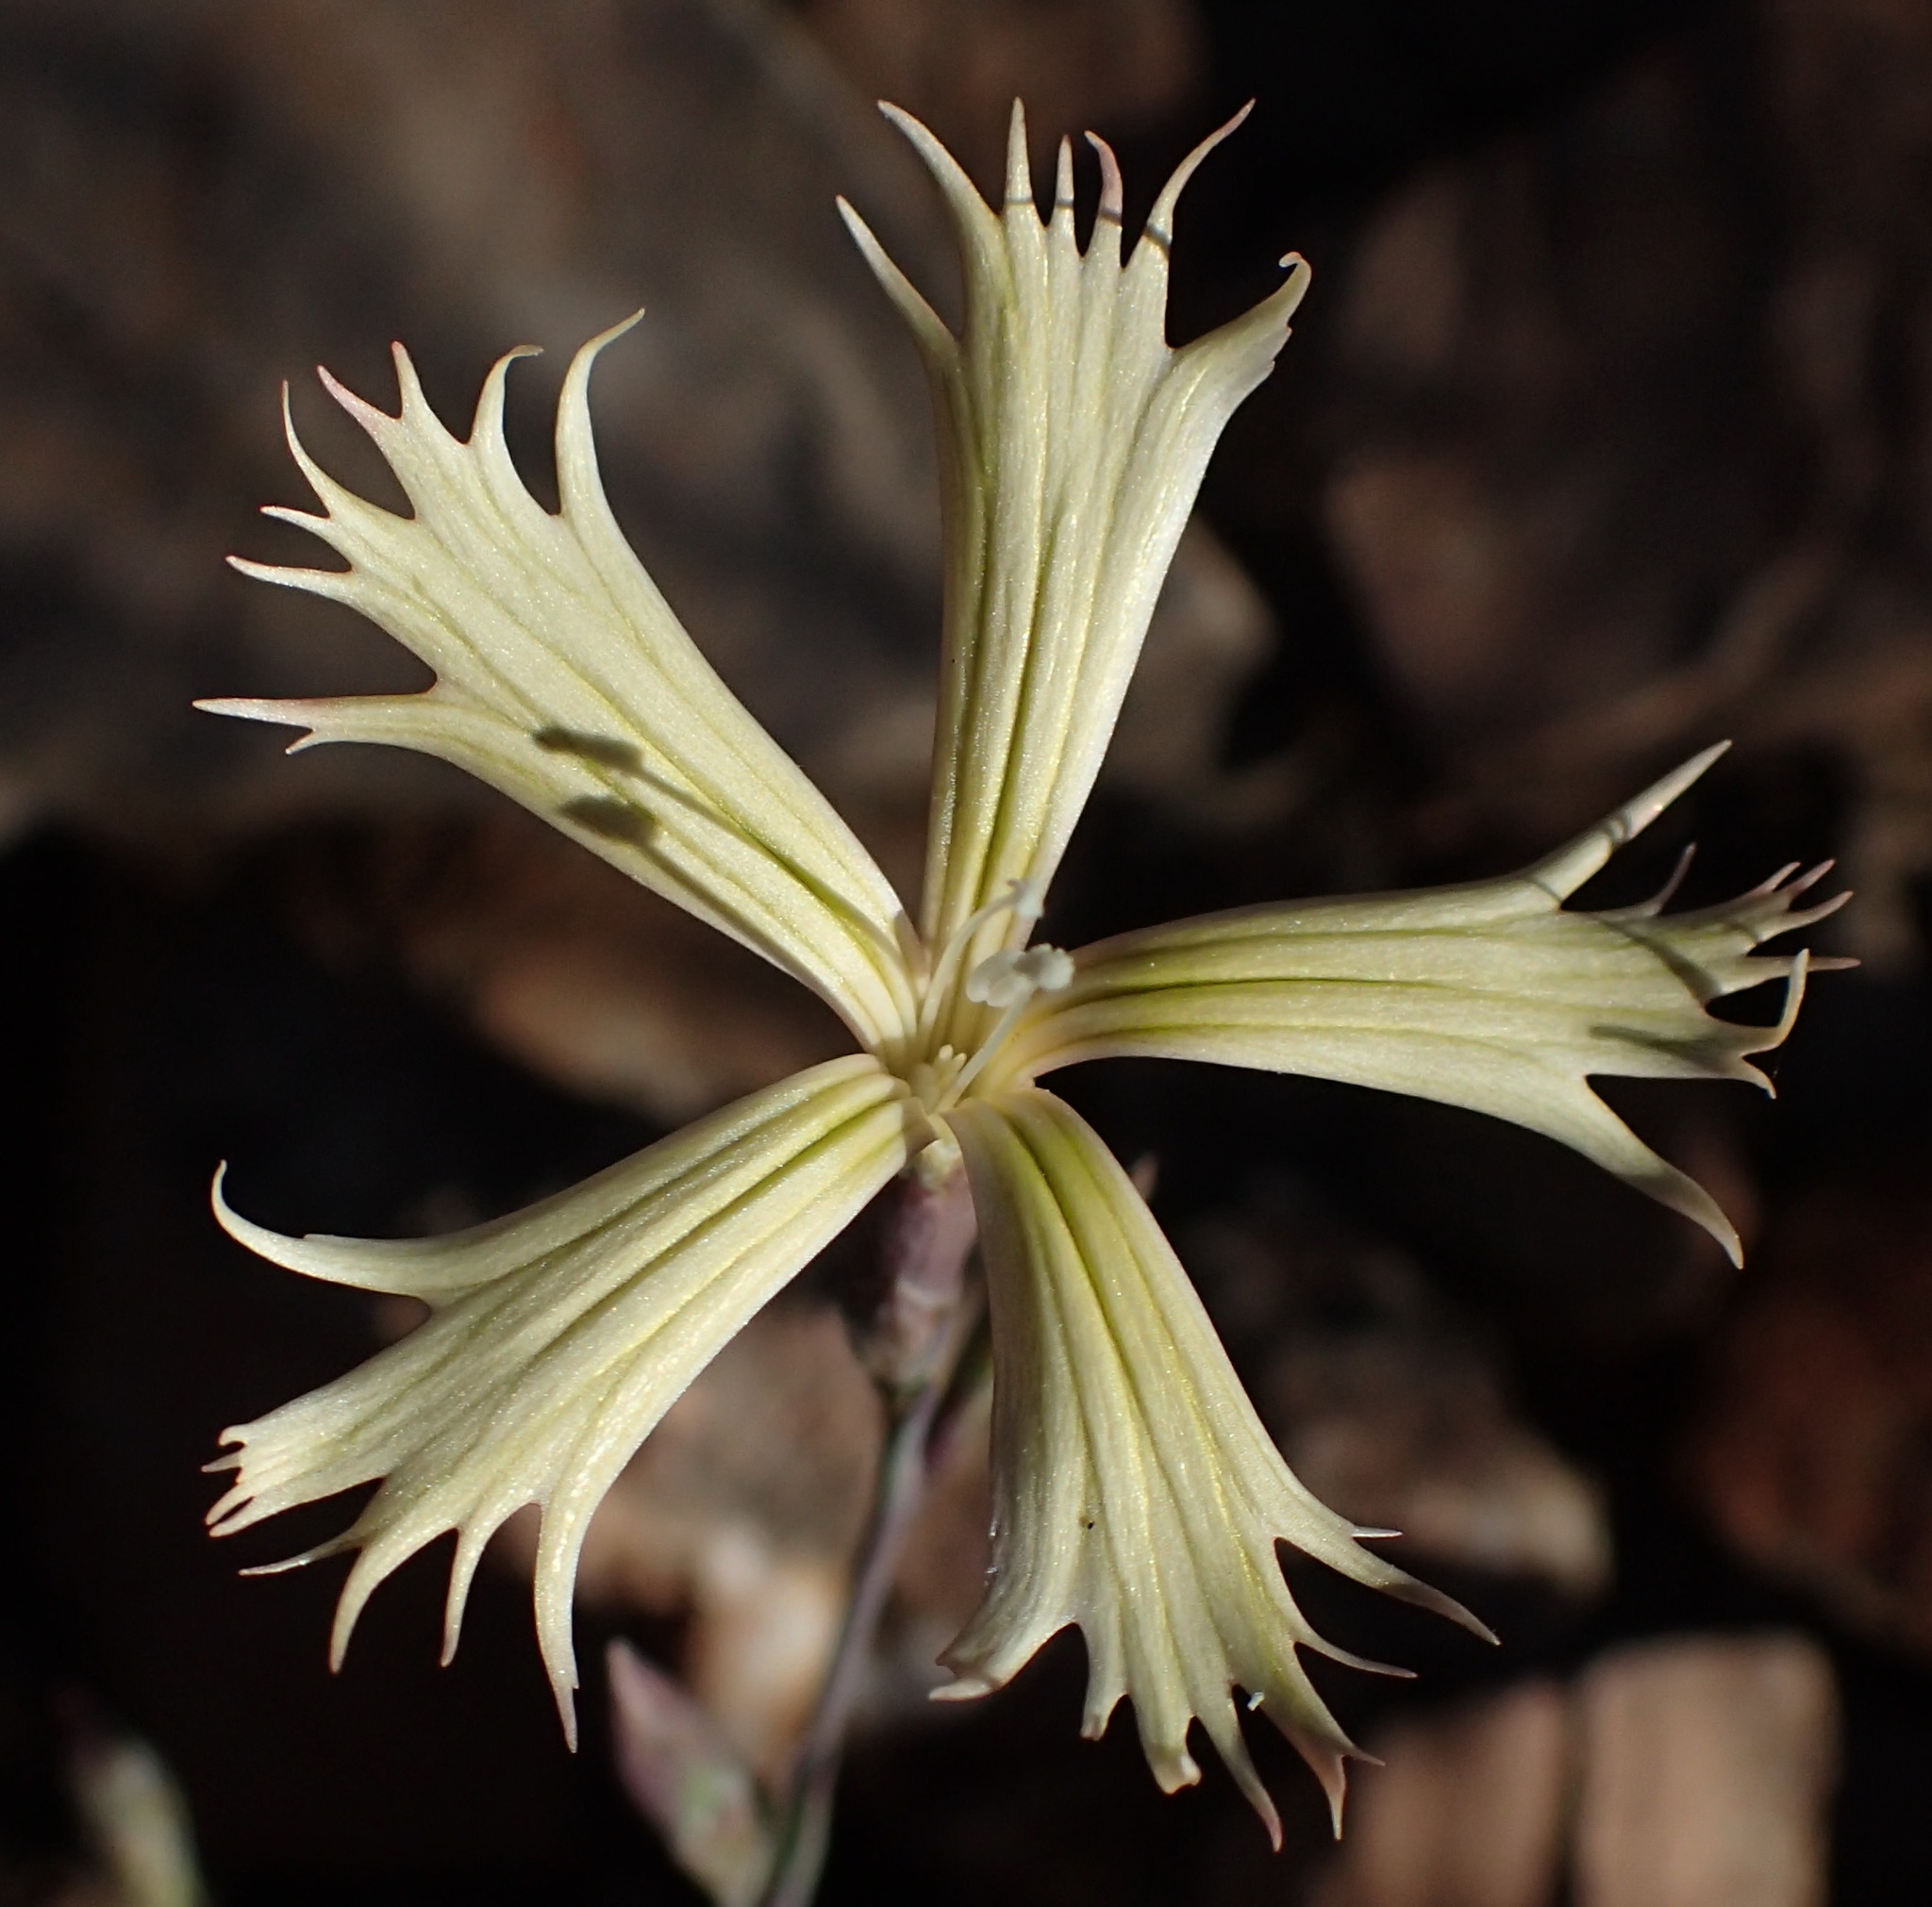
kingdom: Plantae
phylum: Tracheophyta
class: Magnoliopsida
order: Caryophyllales
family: Caryophyllaceae
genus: Dianthus
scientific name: Dianthus namaensis
